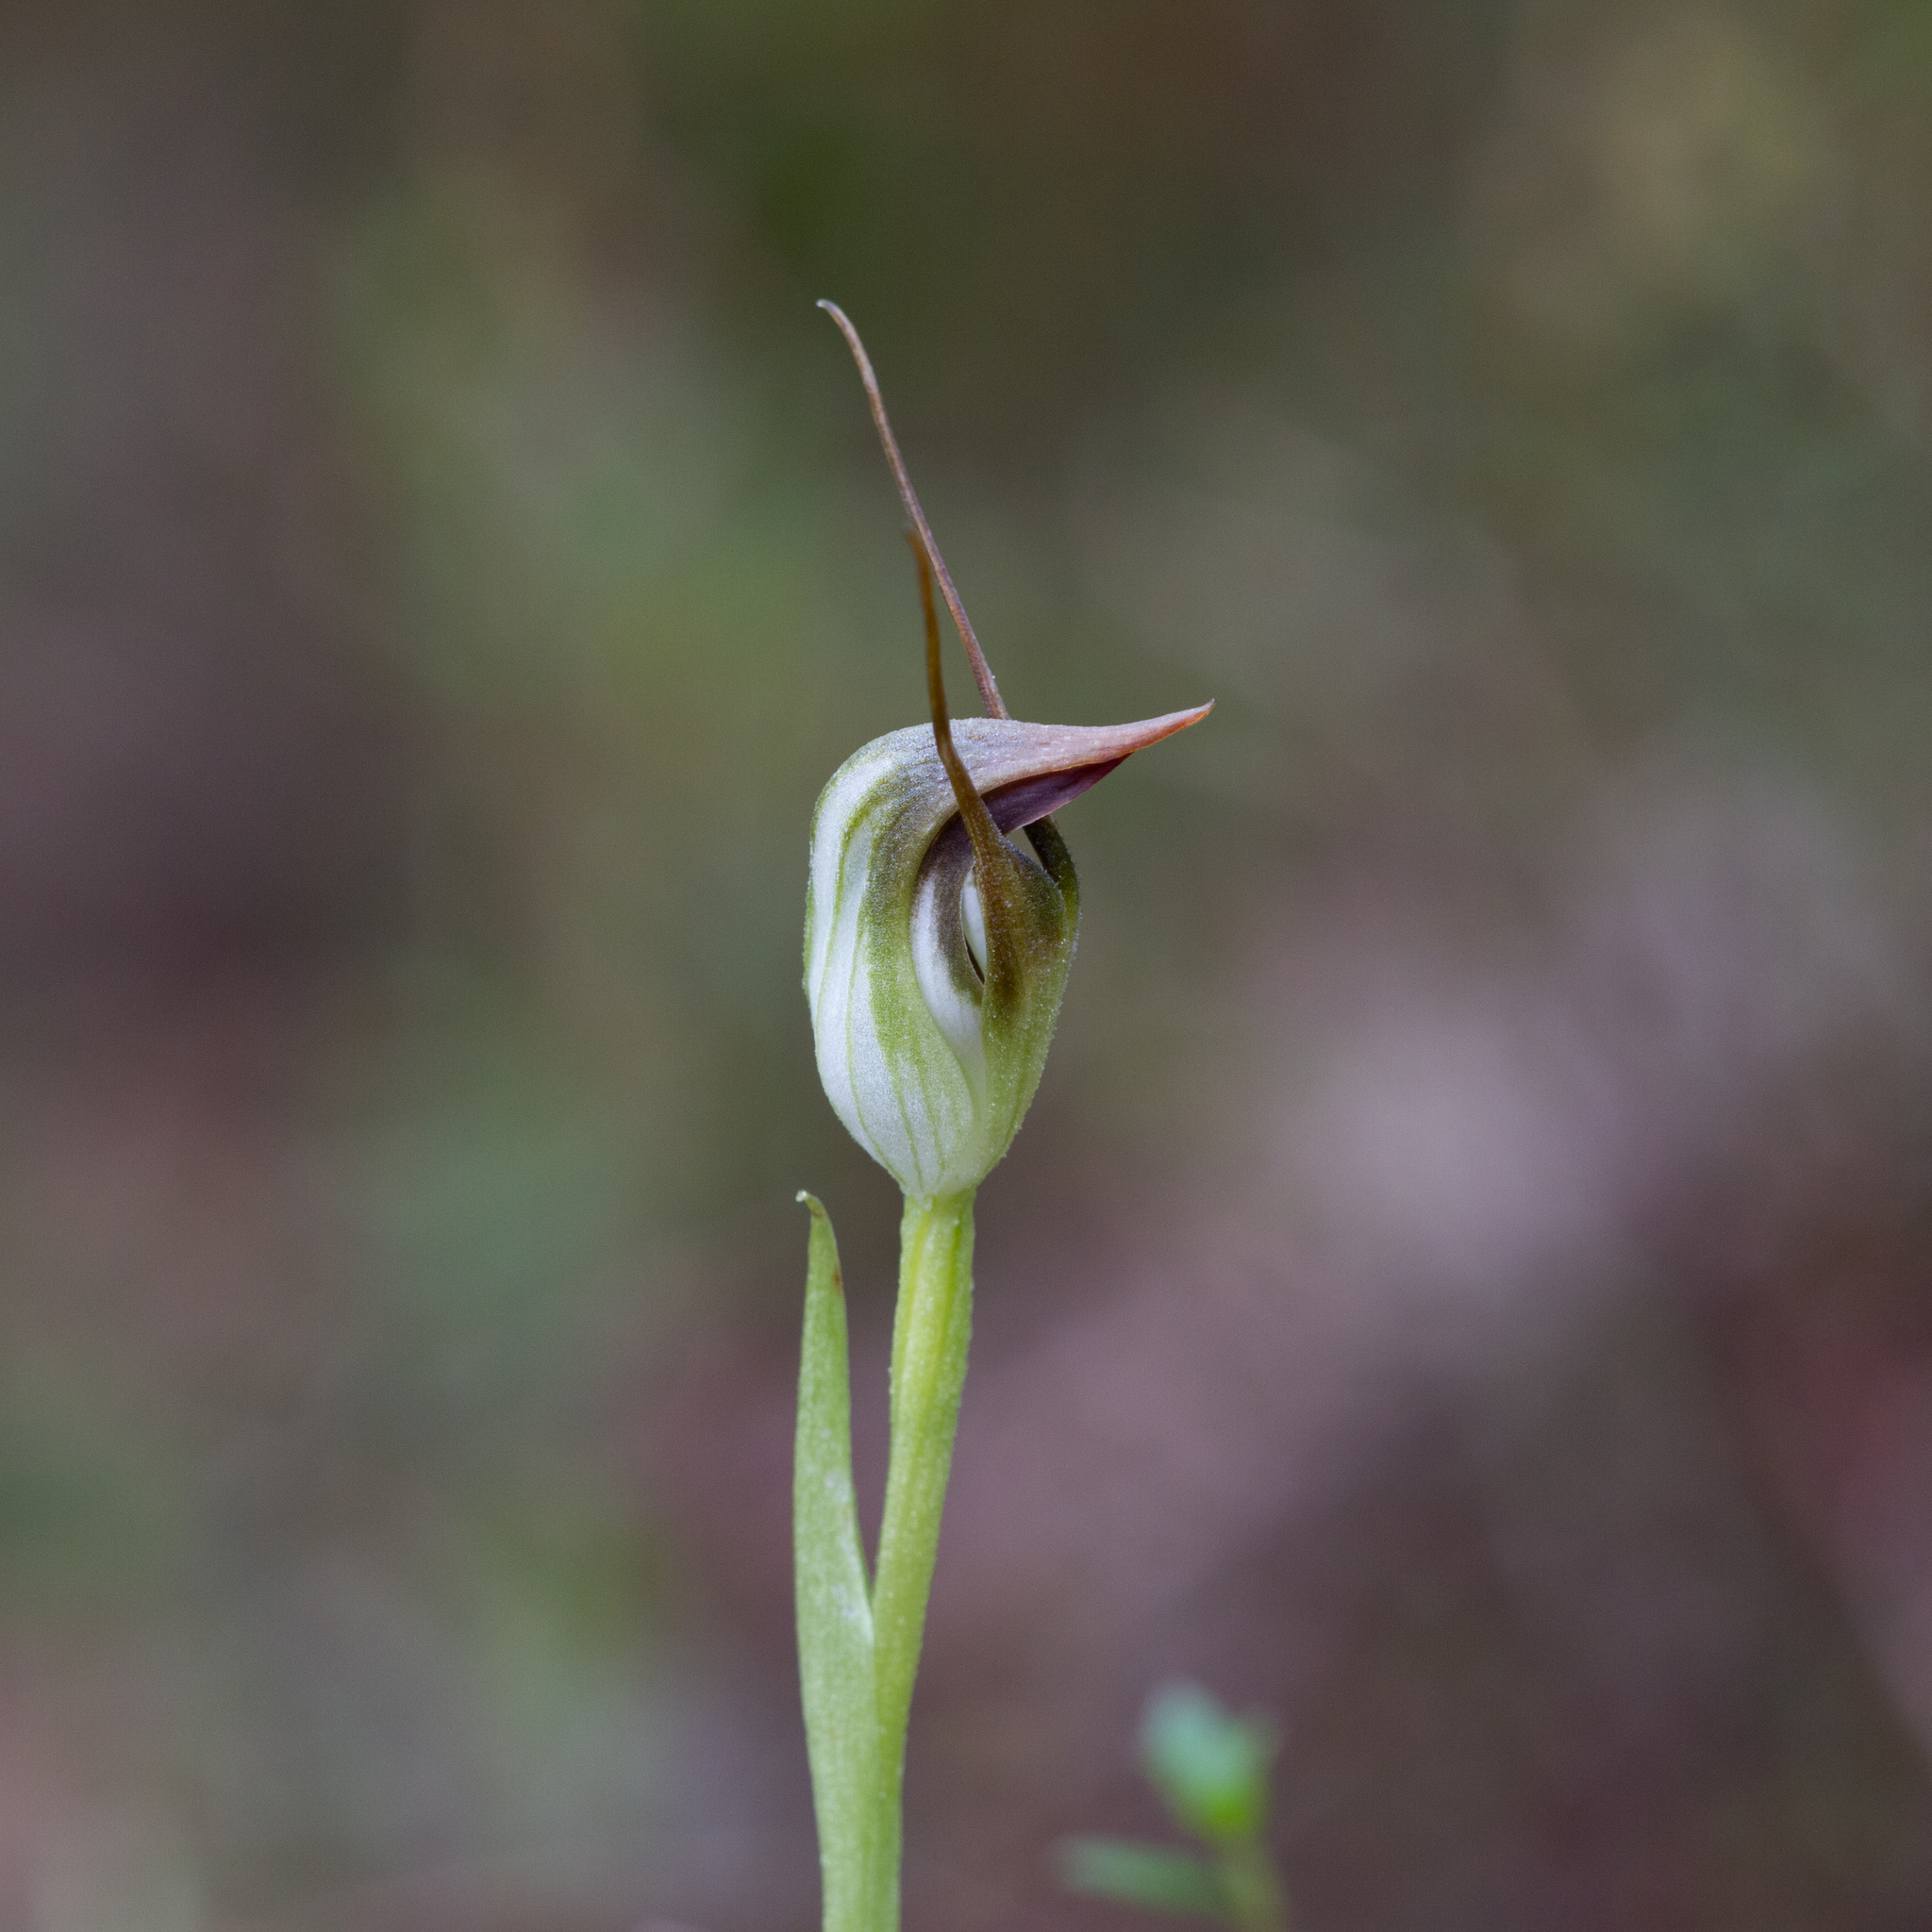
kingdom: Plantae
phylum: Tracheophyta
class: Liliopsida
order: Asparagales
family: Orchidaceae
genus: Pterostylis
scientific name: Pterostylis pedunculata
